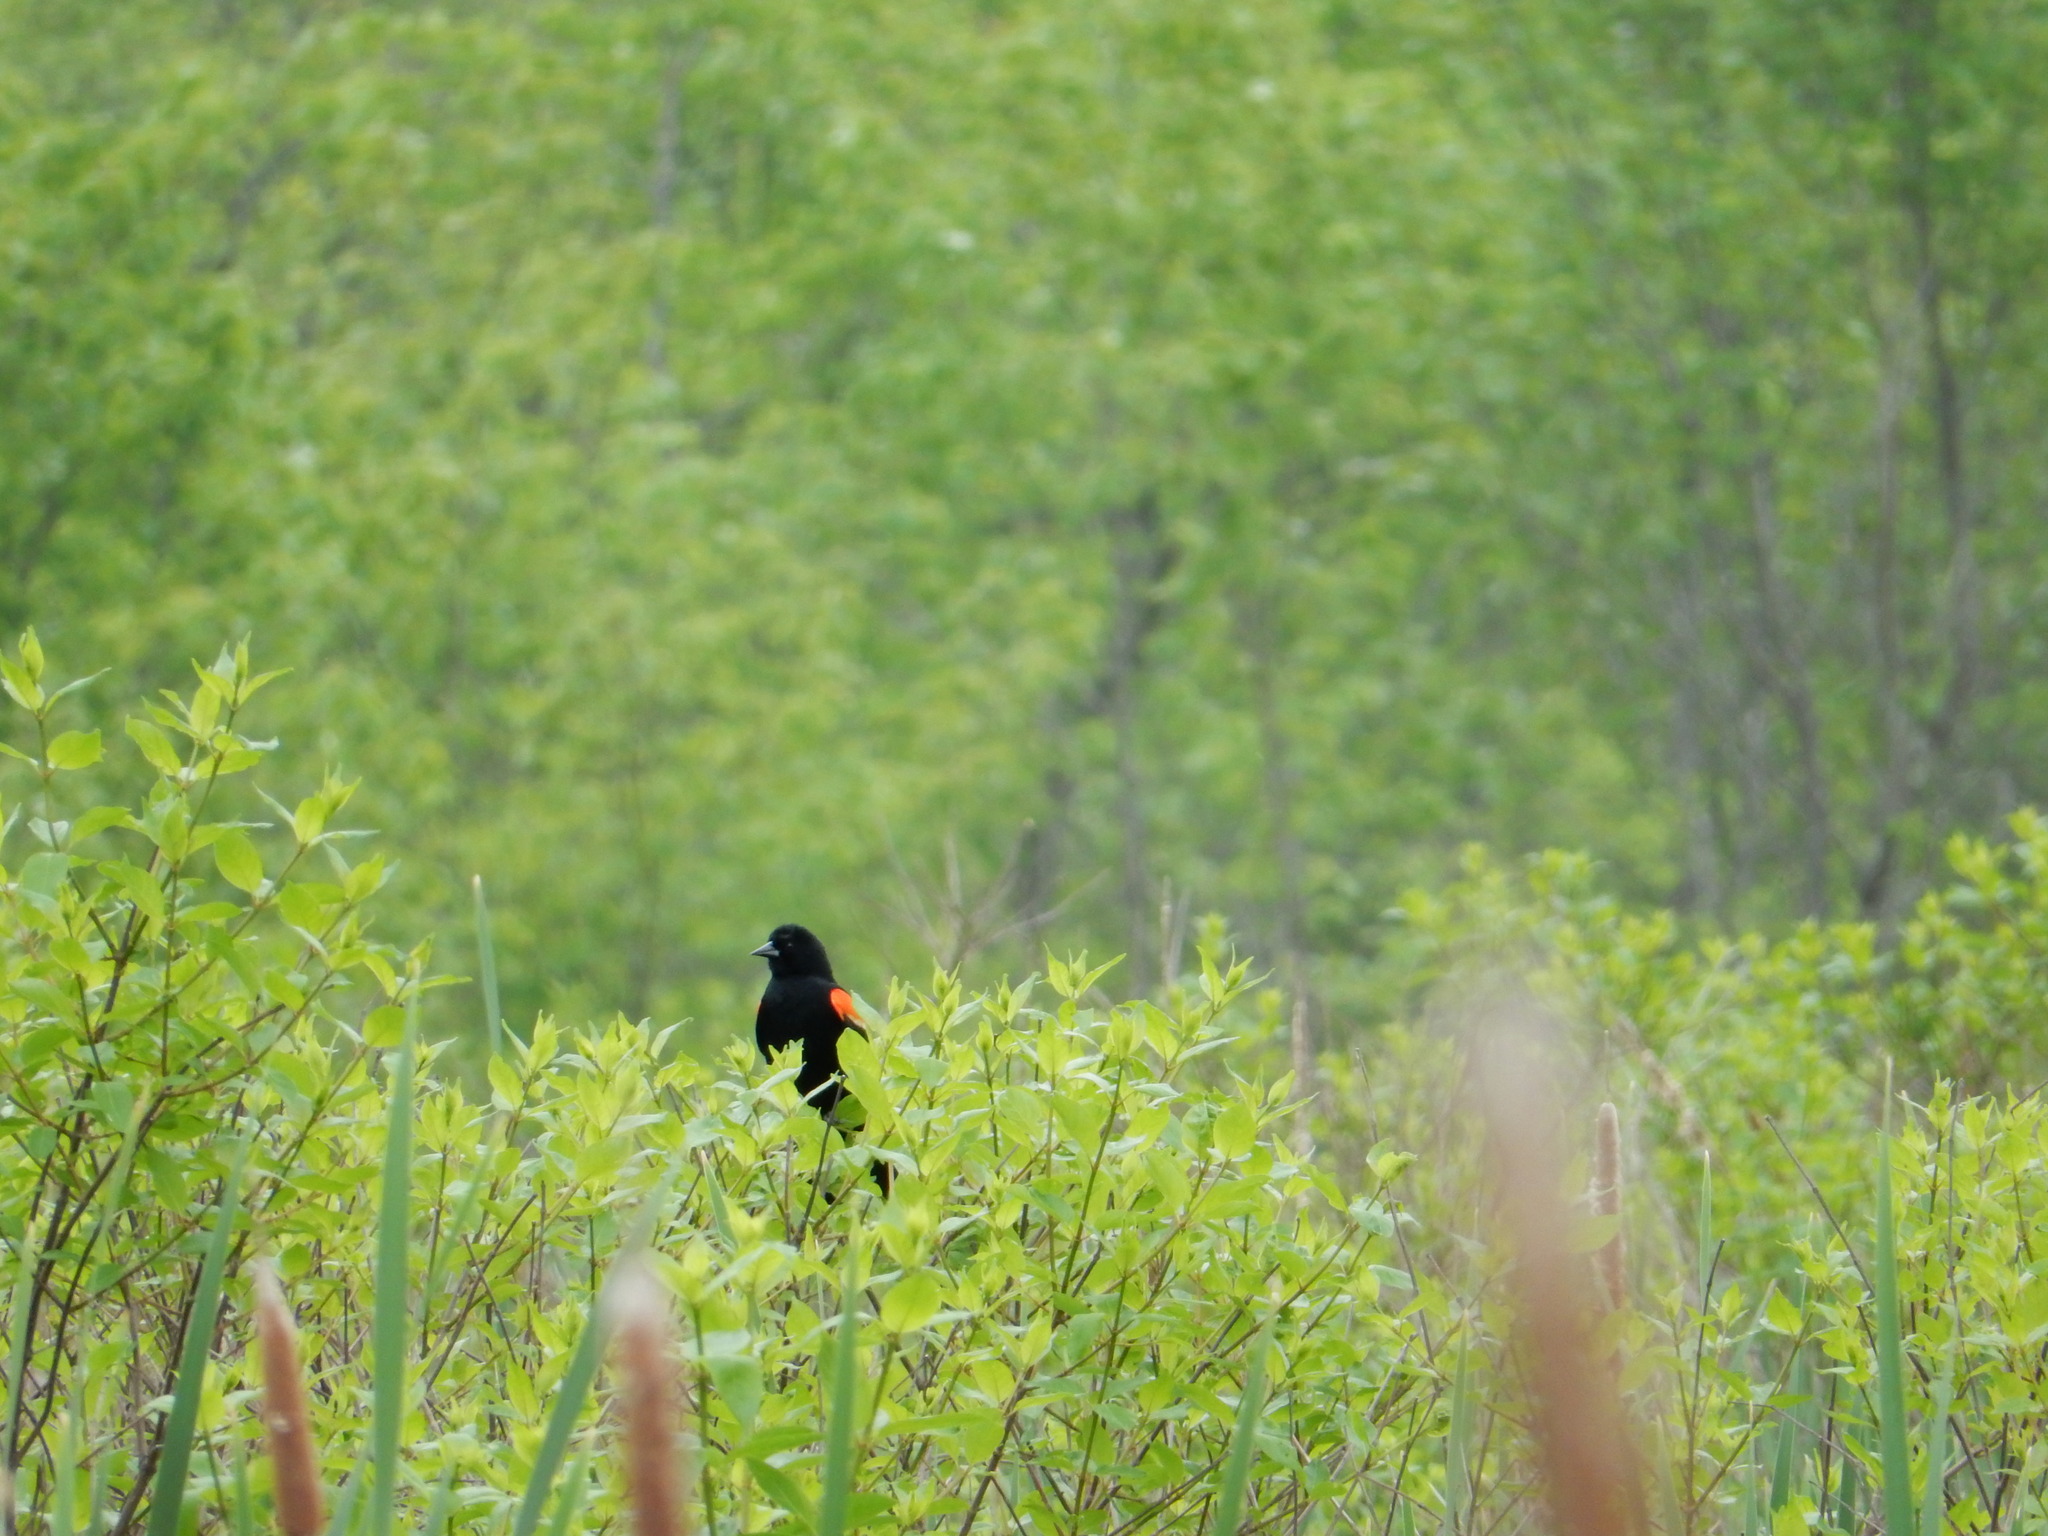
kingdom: Animalia
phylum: Chordata
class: Aves
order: Passeriformes
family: Icteridae
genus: Agelaius
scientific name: Agelaius phoeniceus
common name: Red-winged blackbird
